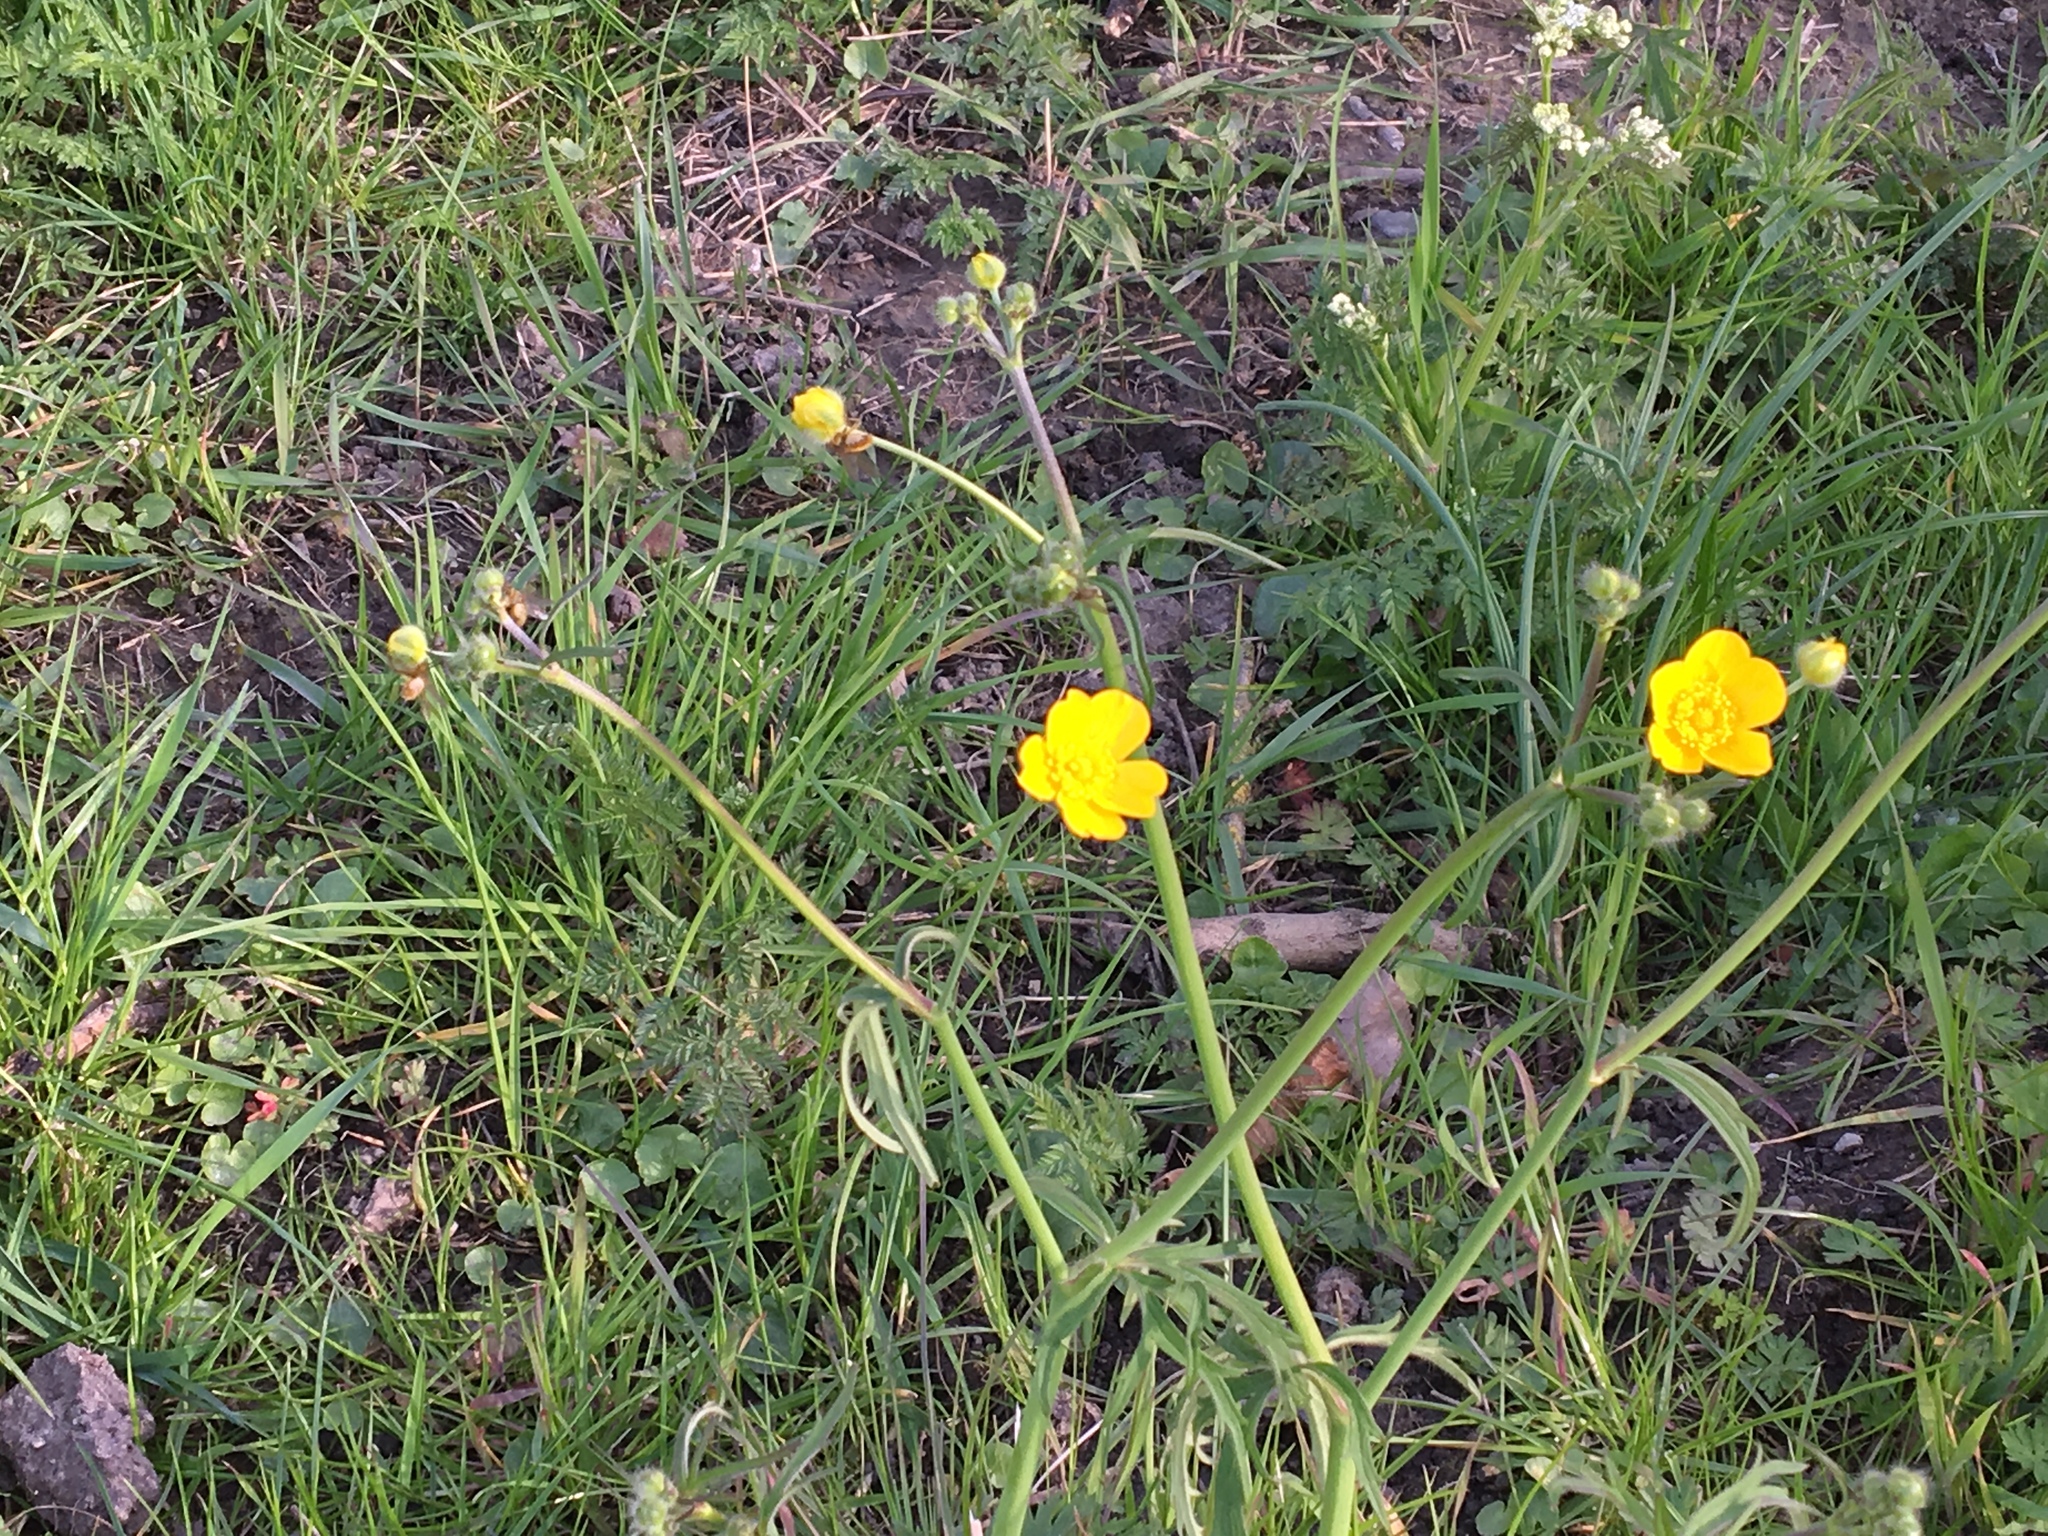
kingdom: Plantae
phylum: Tracheophyta
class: Magnoliopsida
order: Ranunculales
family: Ranunculaceae
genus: Ranunculus
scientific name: Ranunculus auricomus
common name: Goldilocks buttercup
